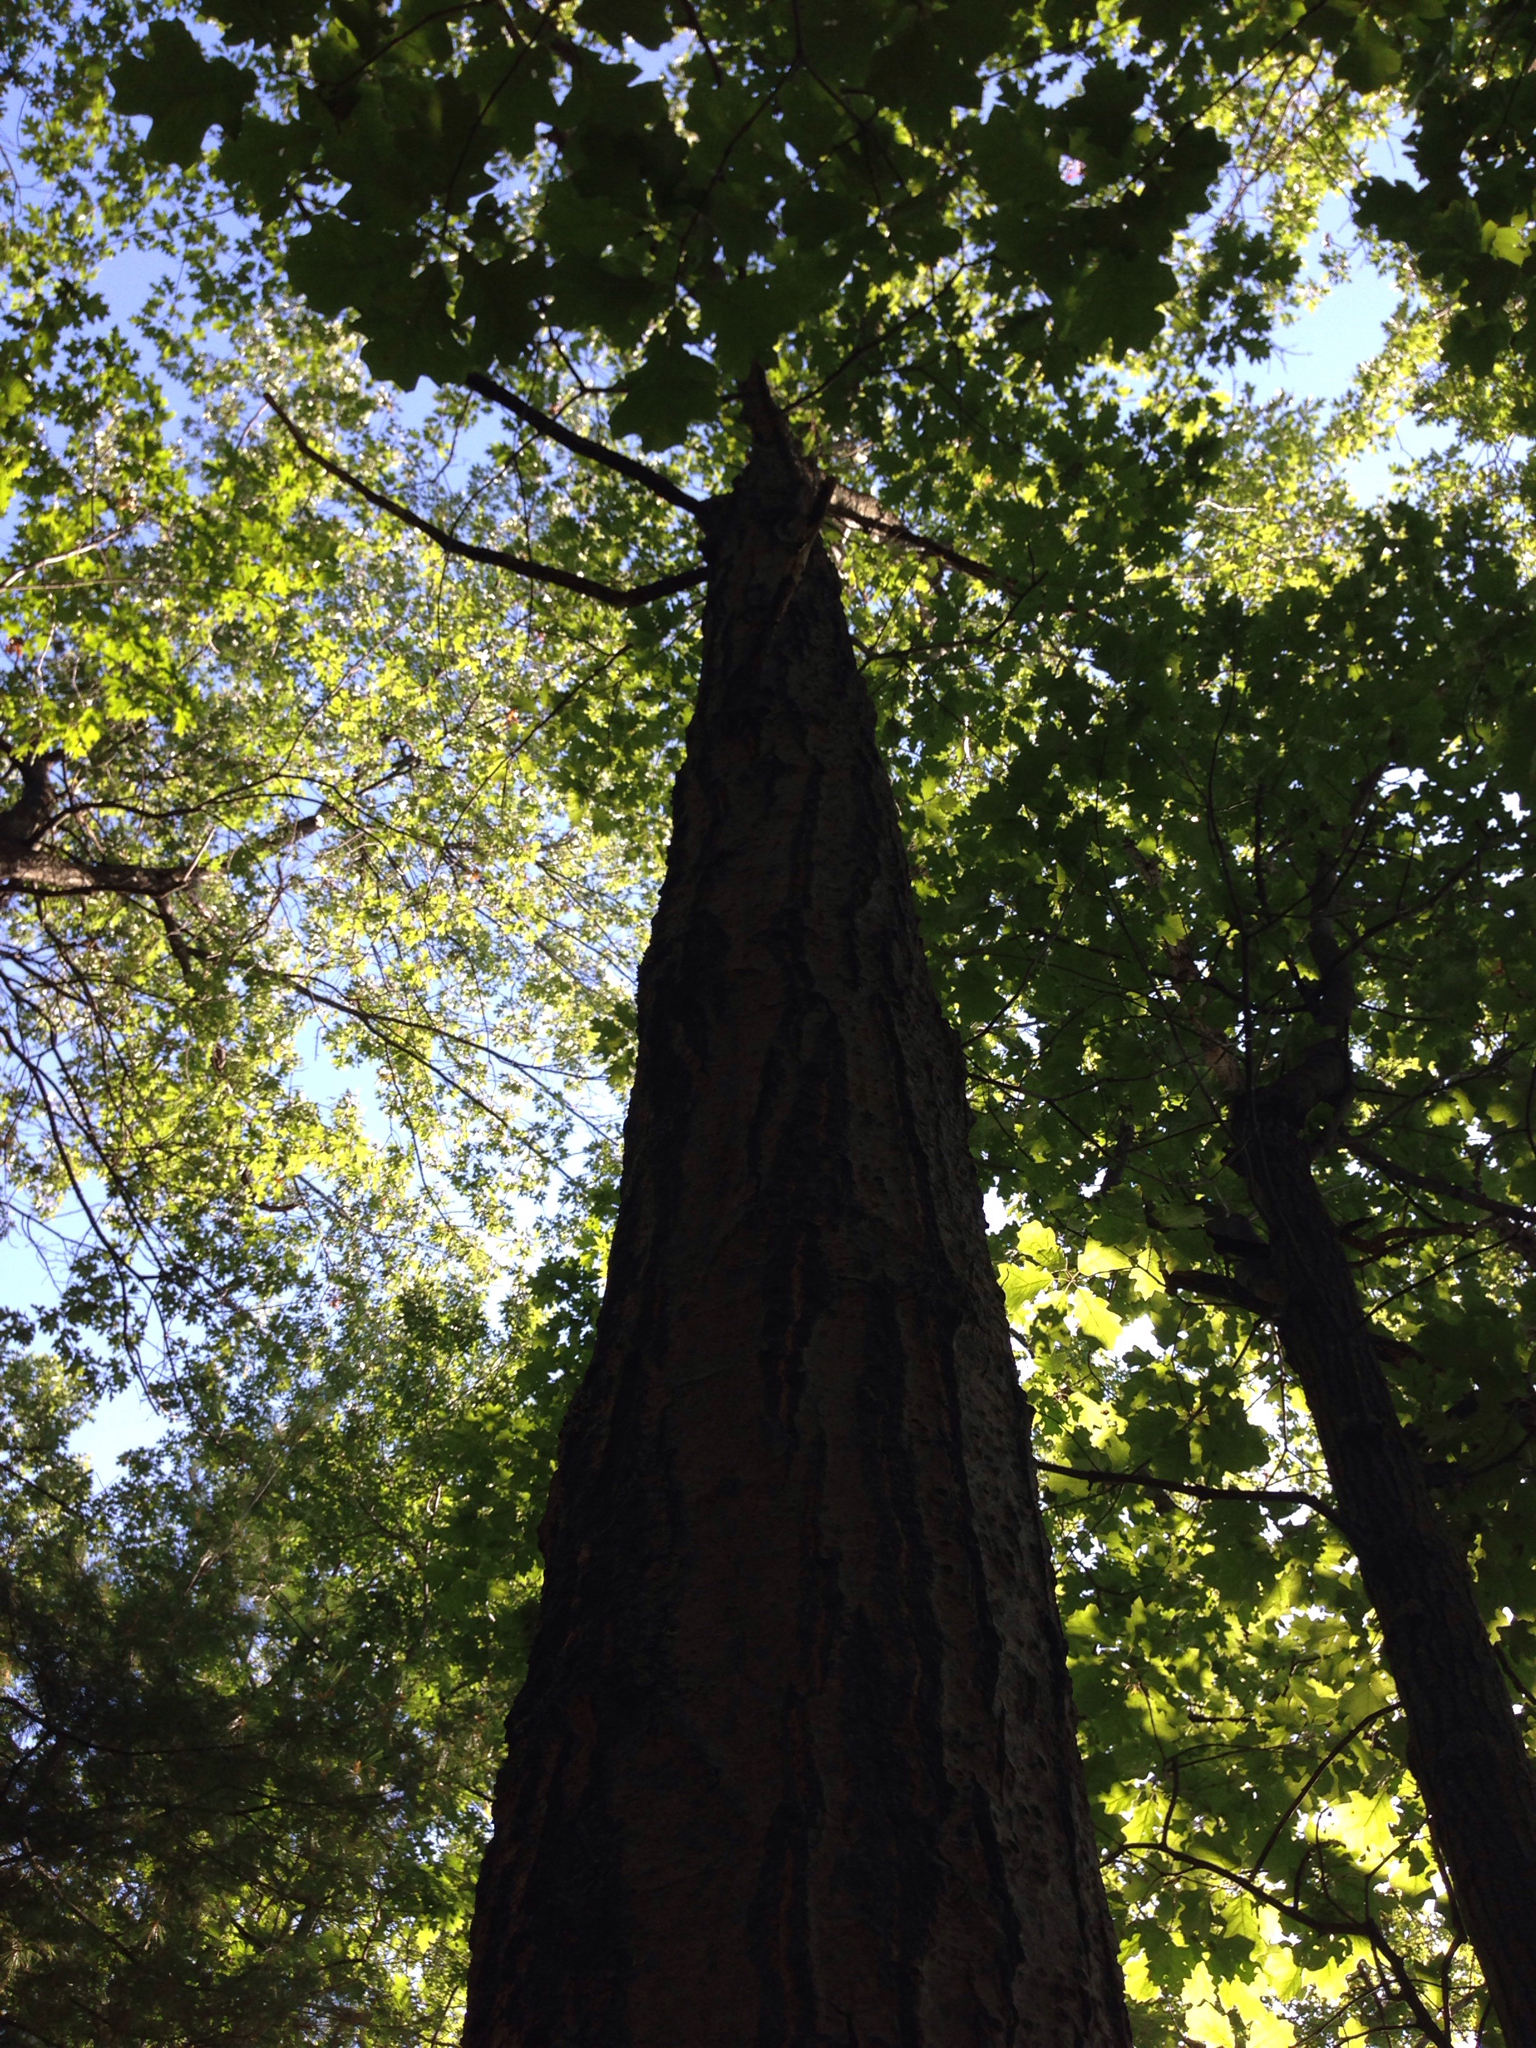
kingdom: Plantae
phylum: Tracheophyta
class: Magnoliopsida
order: Fagales
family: Fagaceae
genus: Quercus
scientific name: Quercus rubra
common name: Red oak
